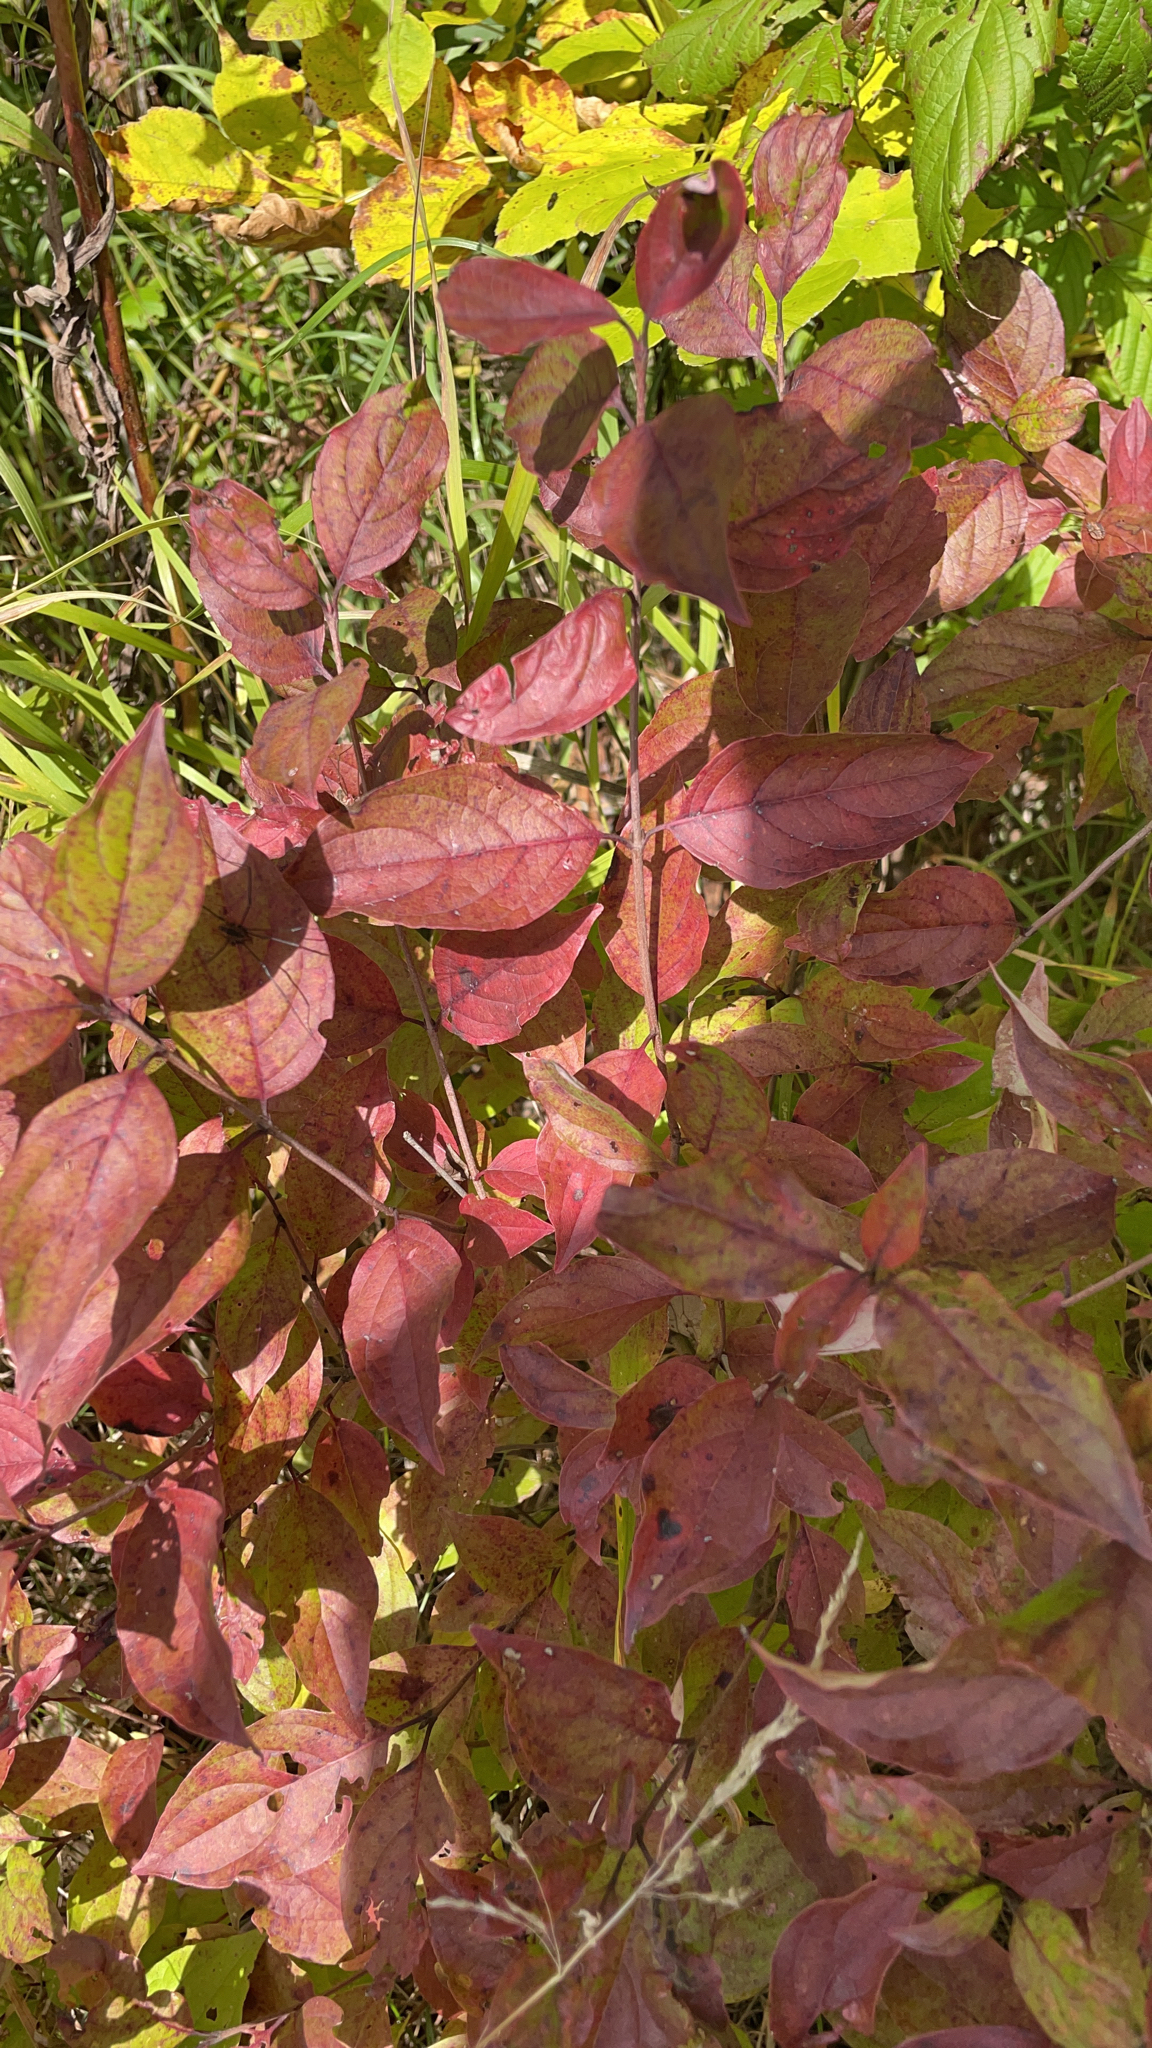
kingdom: Plantae
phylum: Tracheophyta
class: Magnoliopsida
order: Cornales
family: Cornaceae
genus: Cornus
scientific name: Cornus racemosa
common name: Panicled dogwood
